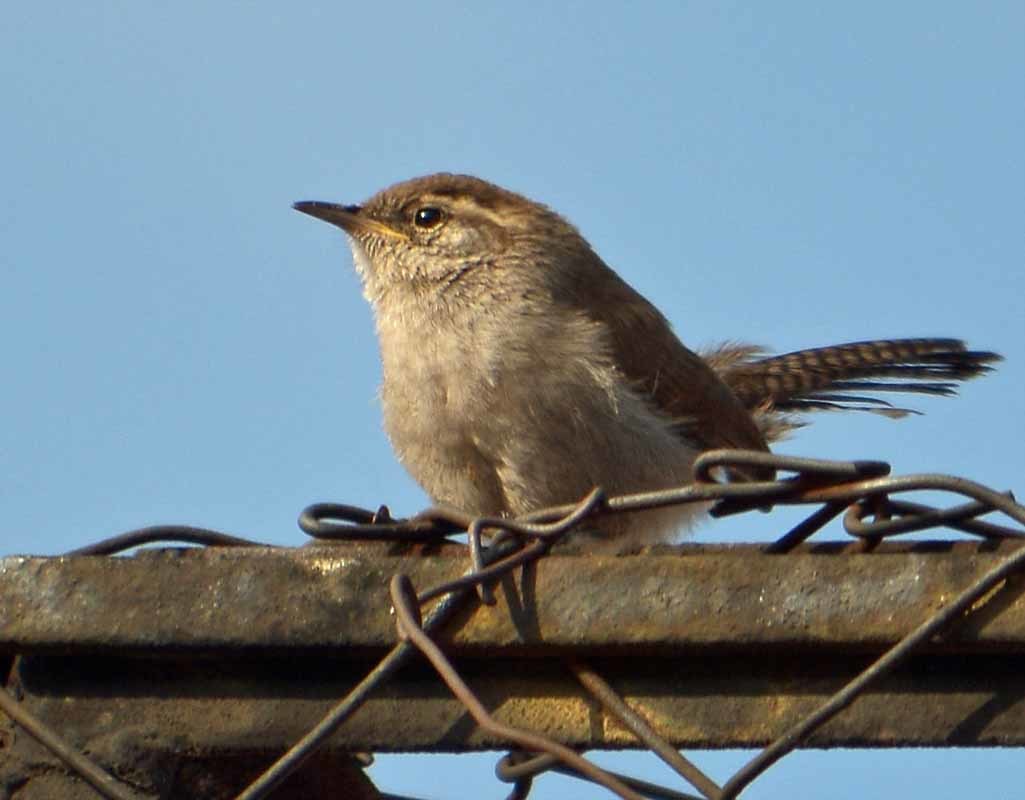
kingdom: Animalia
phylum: Chordata
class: Aves
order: Passeriformes
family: Troglodytidae
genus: Thryomanes
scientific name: Thryomanes bewickii
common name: Bewick's wren
